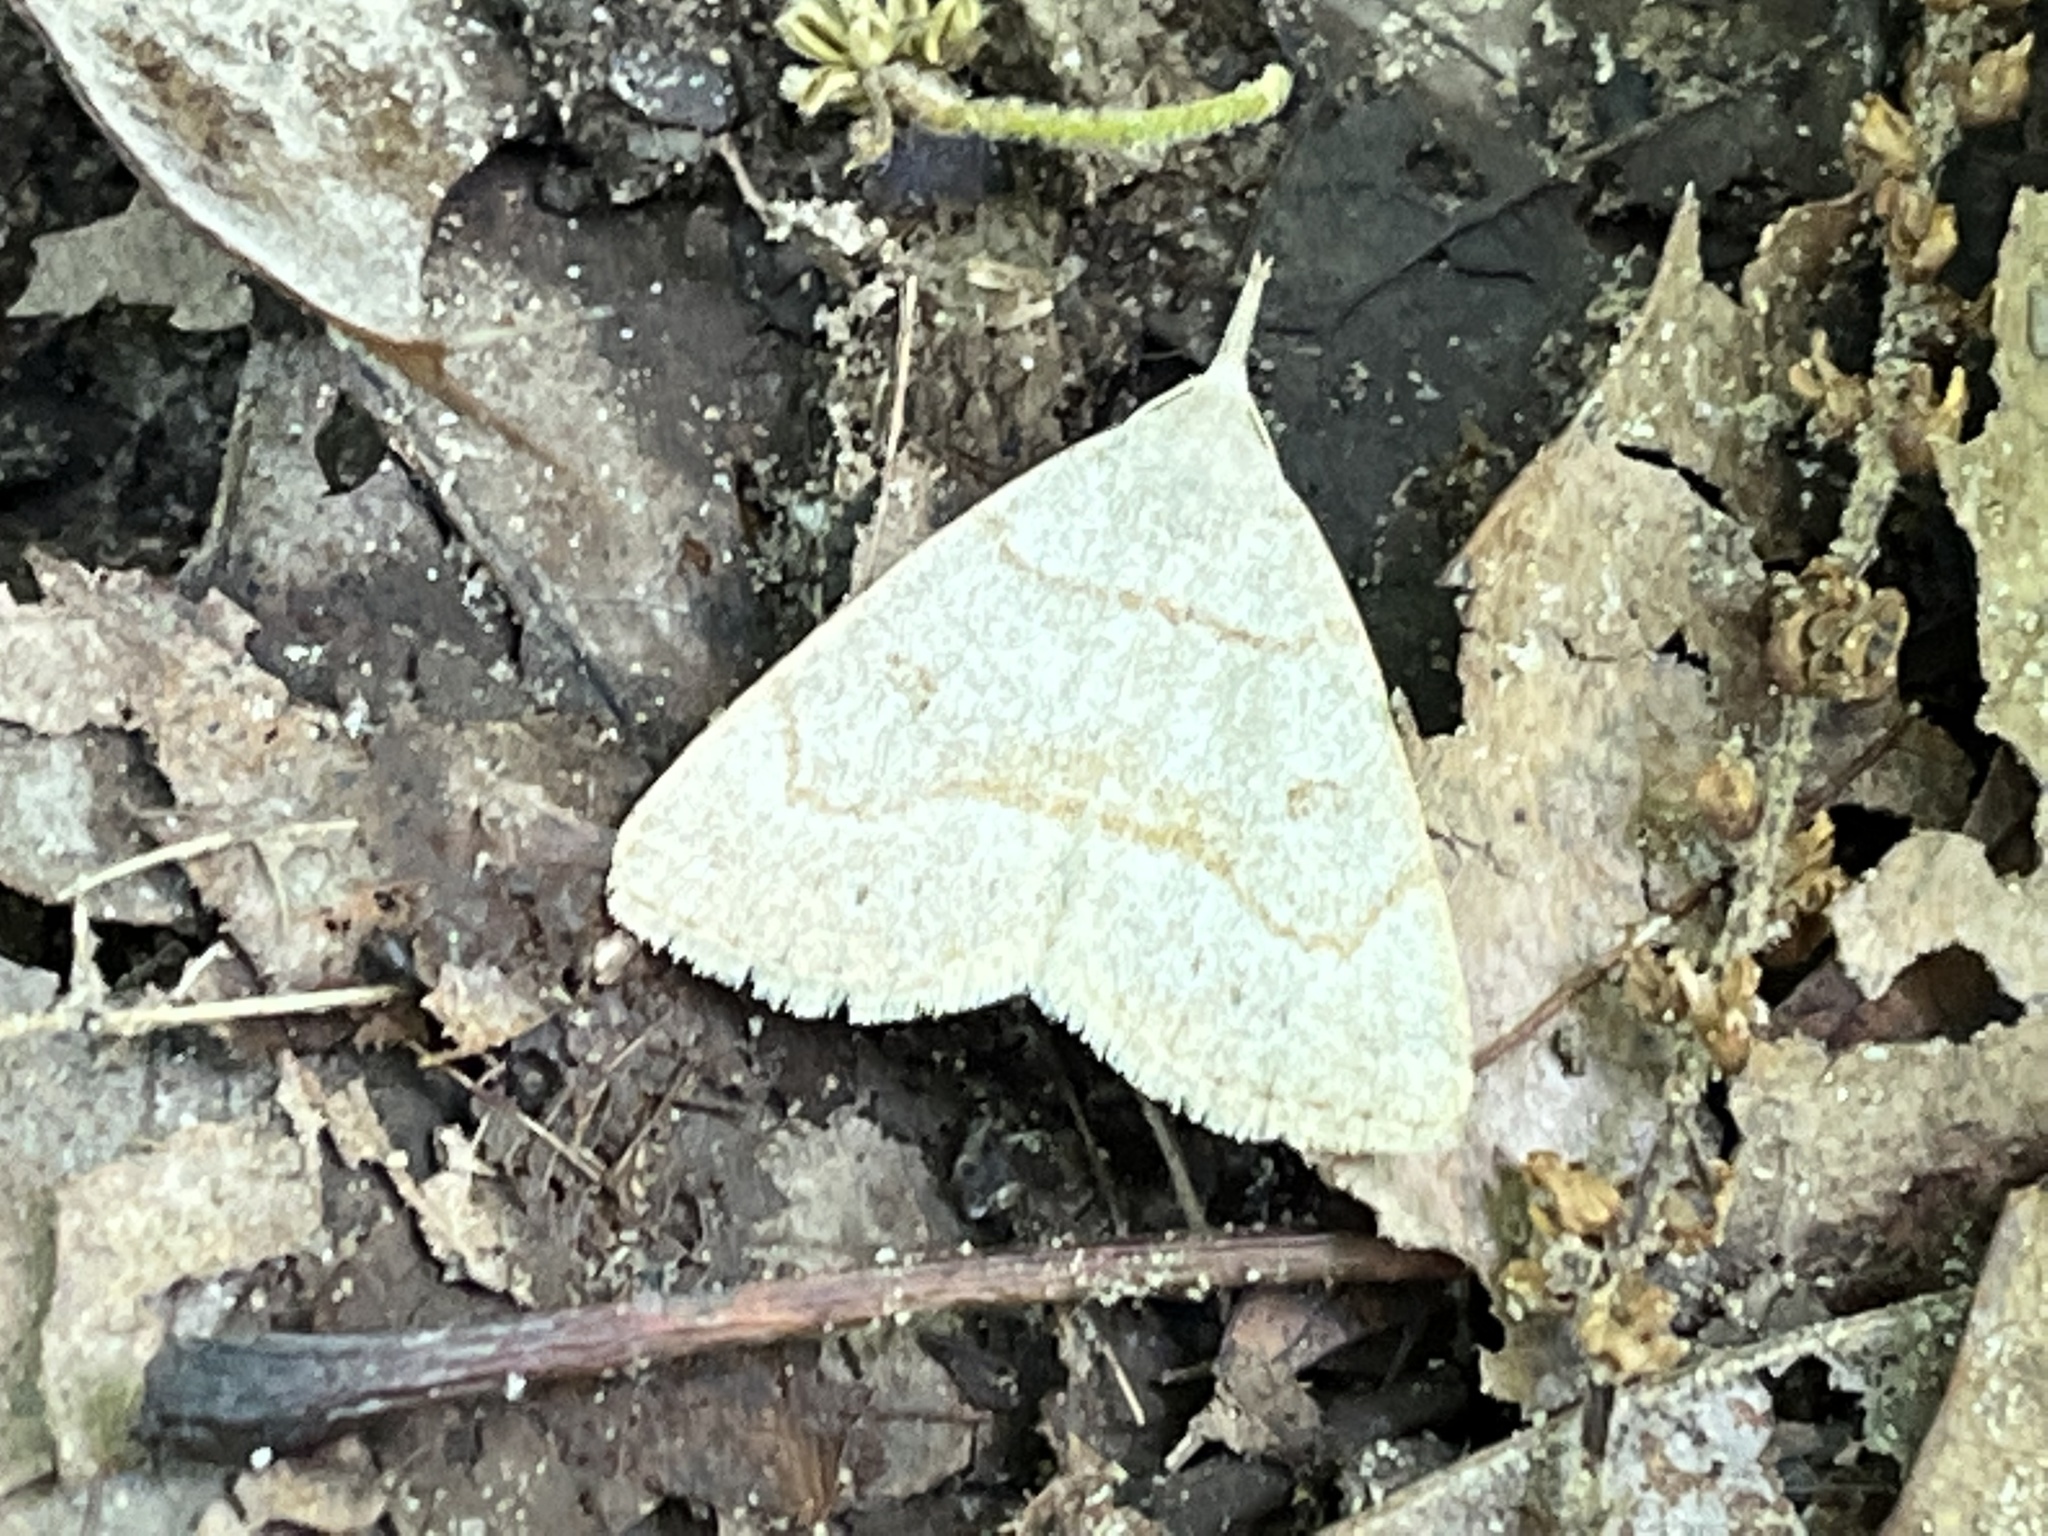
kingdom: Animalia
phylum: Arthropoda
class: Insecta
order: Lepidoptera
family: Erebidae
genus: Macrochilo
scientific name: Macrochilo morbidalis
